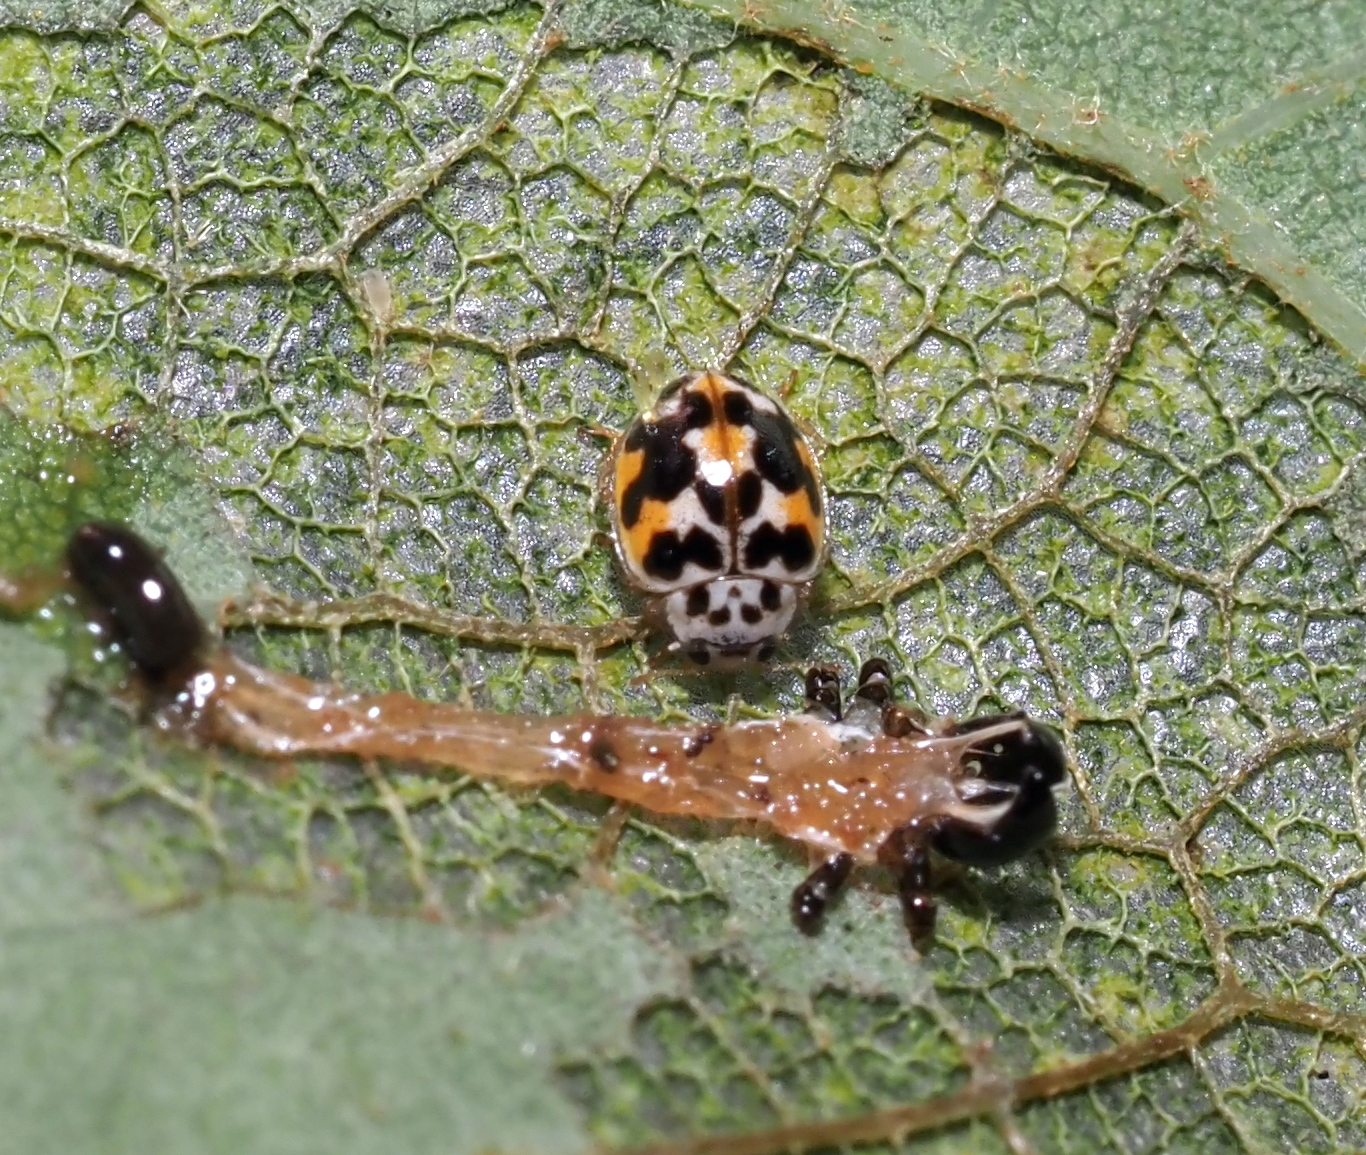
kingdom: Animalia
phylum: Arthropoda
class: Insecta
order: Coleoptera
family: Coccinellidae
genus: Psyllobora
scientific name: Psyllobora vigintimaculata
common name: Ladybird beetle
